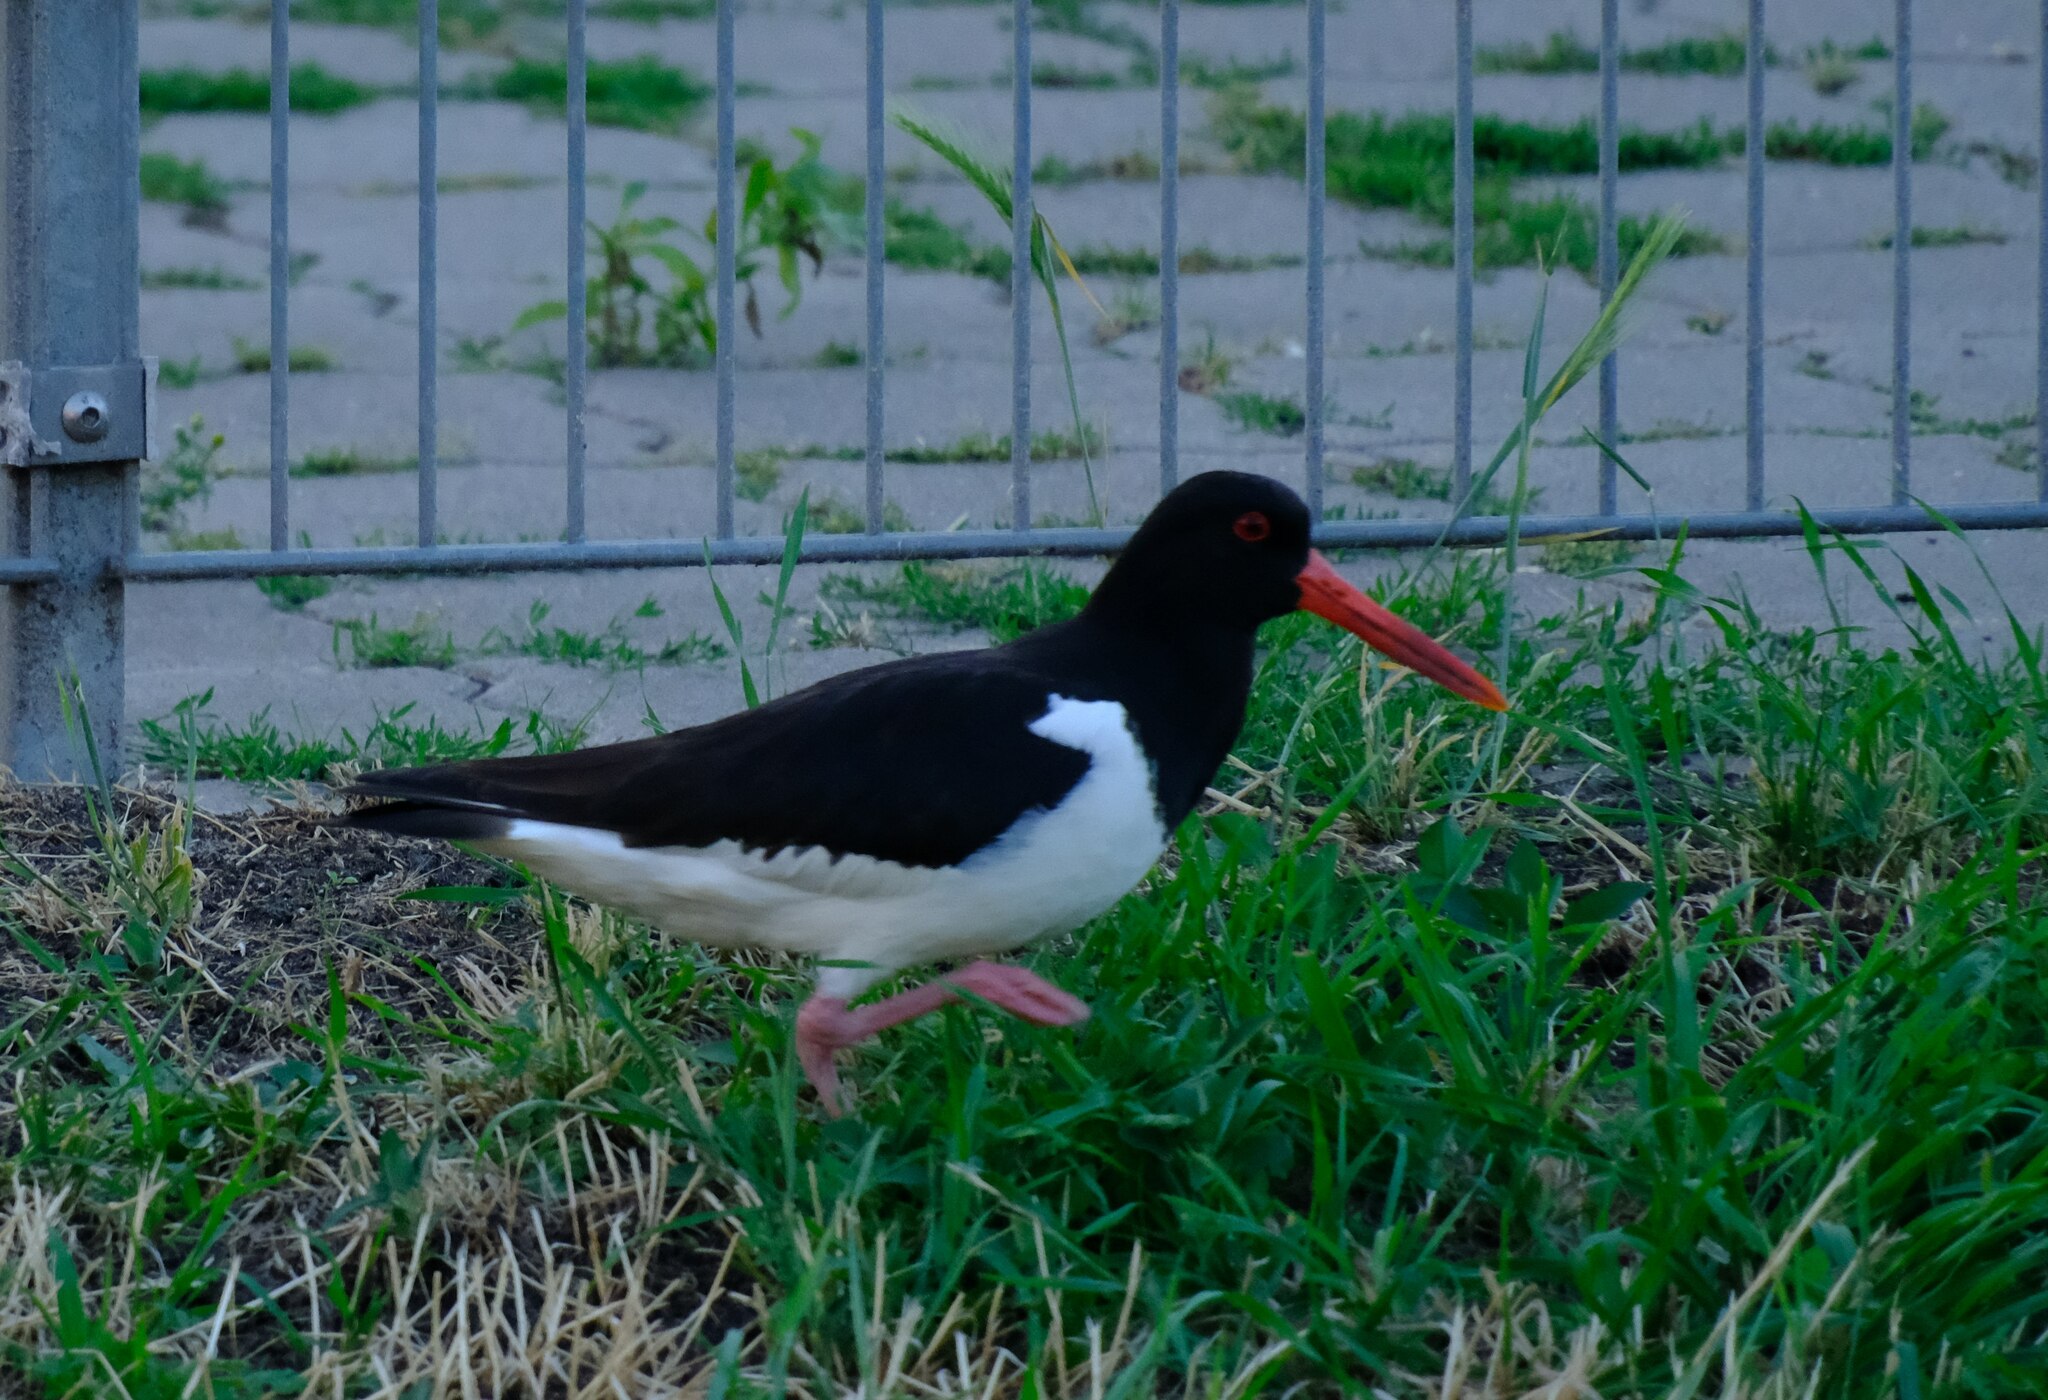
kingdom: Animalia
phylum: Chordata
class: Aves
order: Charadriiformes
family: Haematopodidae
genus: Haematopus
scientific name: Haematopus ostralegus
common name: Eurasian oystercatcher
